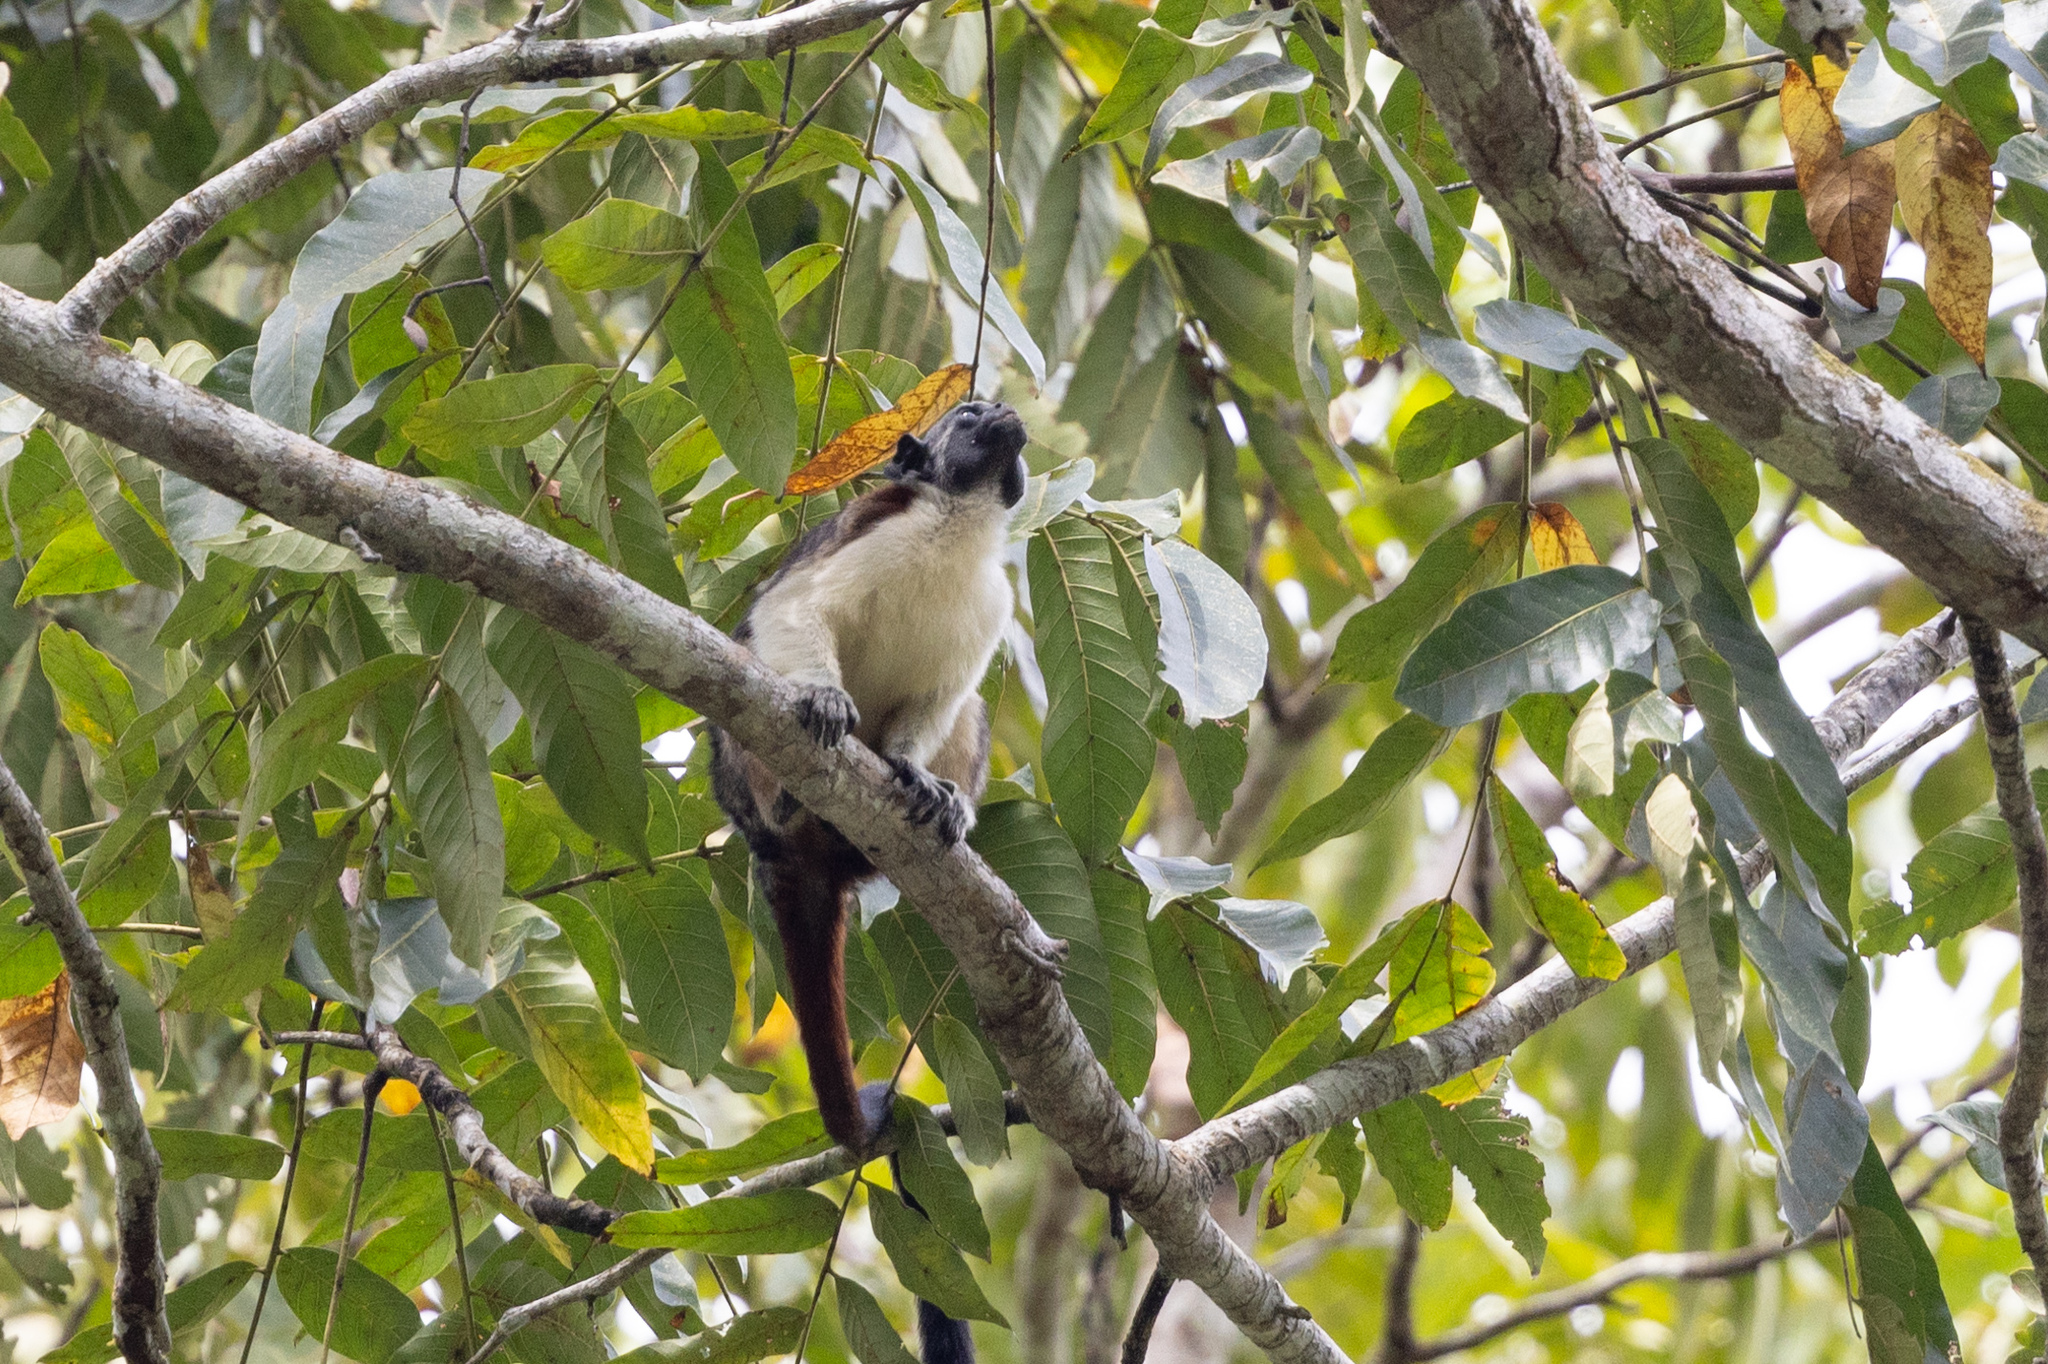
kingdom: Animalia
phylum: Chordata
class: Mammalia
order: Primates
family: Callitrichidae
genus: Saguinus
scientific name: Saguinus geoffroyi
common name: Geoffroy s tamarin
